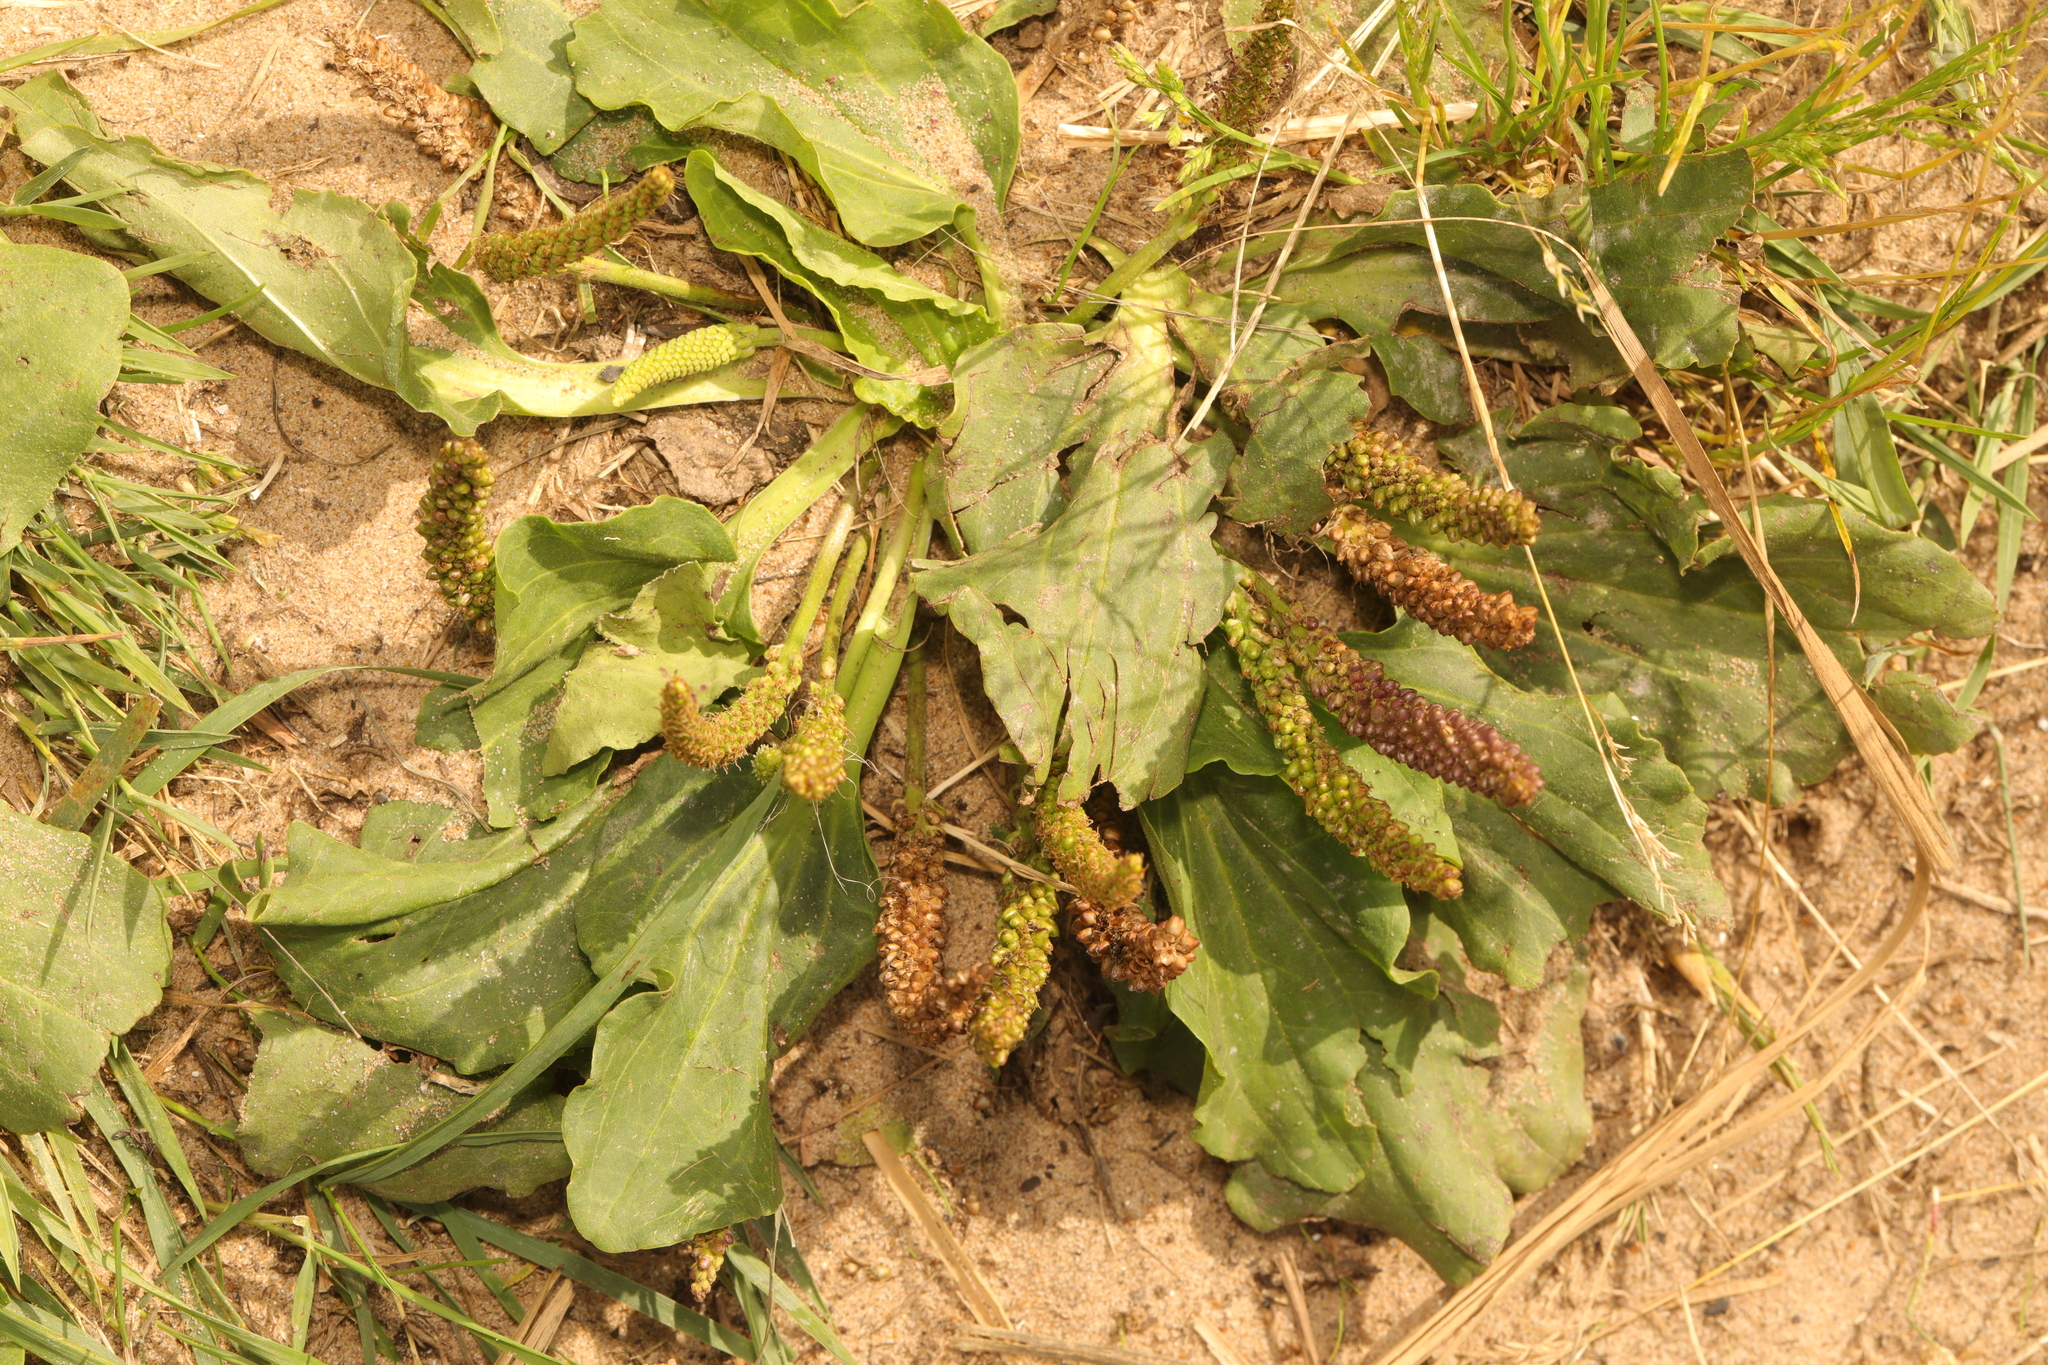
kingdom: Plantae
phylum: Tracheophyta
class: Magnoliopsida
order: Lamiales
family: Plantaginaceae
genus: Plantago
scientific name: Plantago major
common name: Common plantain
